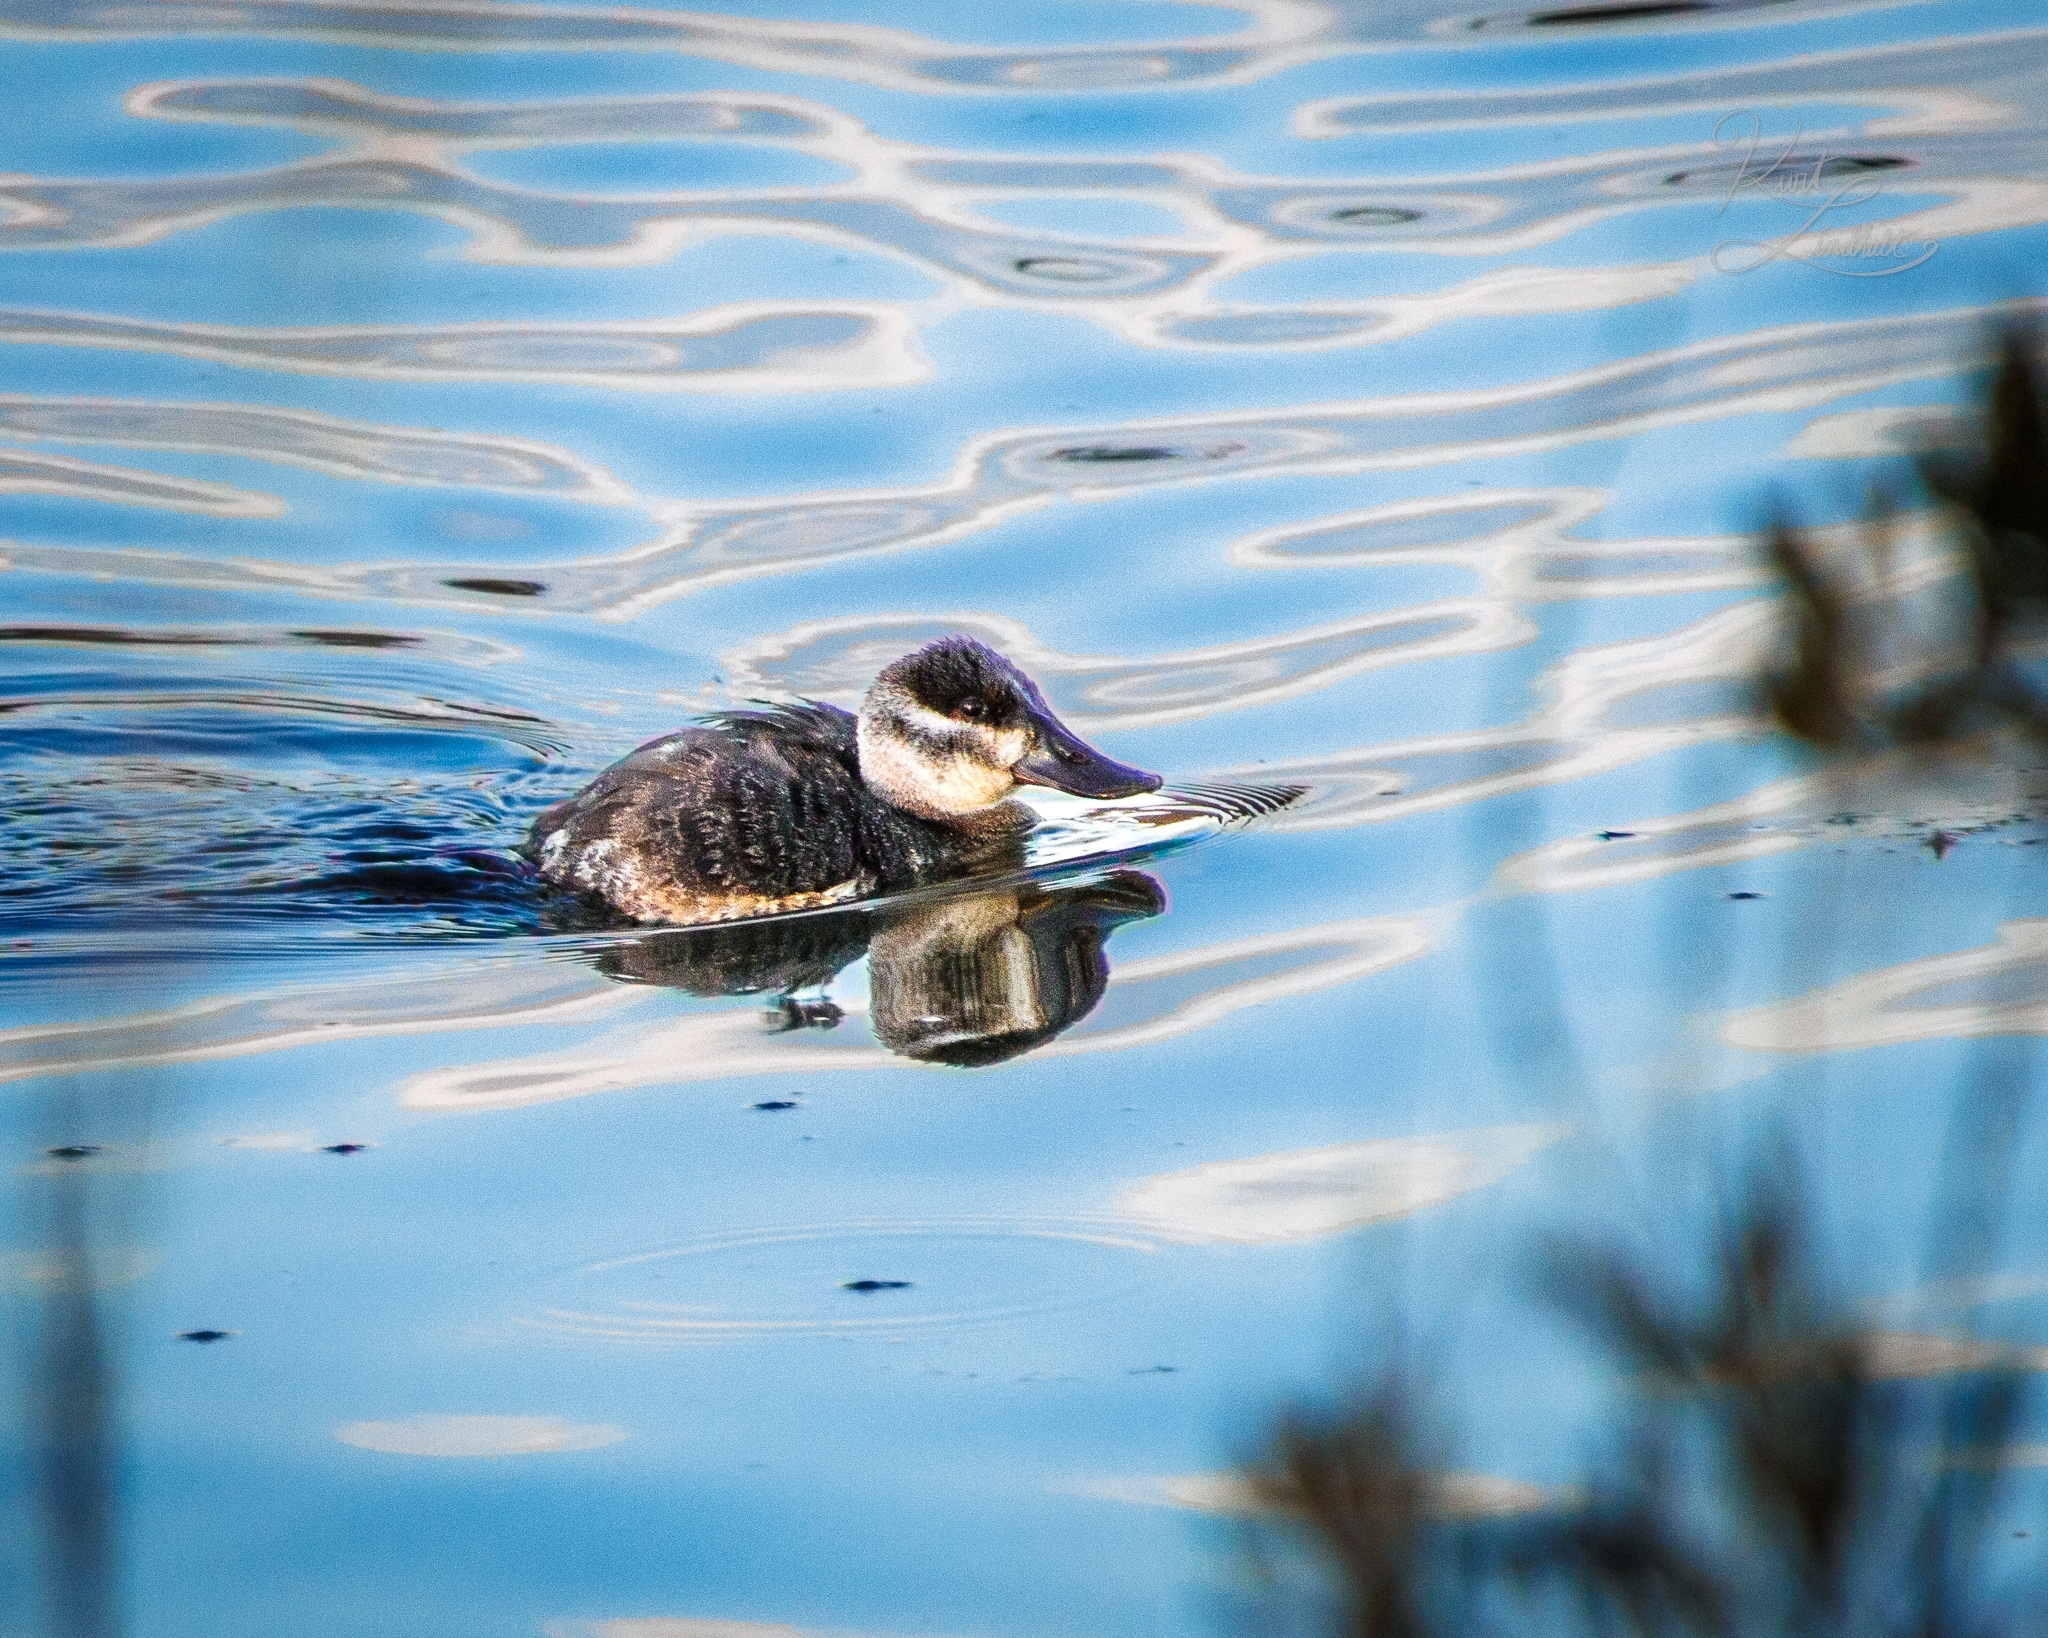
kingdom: Animalia
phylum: Chordata
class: Aves
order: Anseriformes
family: Anatidae
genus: Oxyura
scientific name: Oxyura jamaicensis
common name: Ruddy duck
